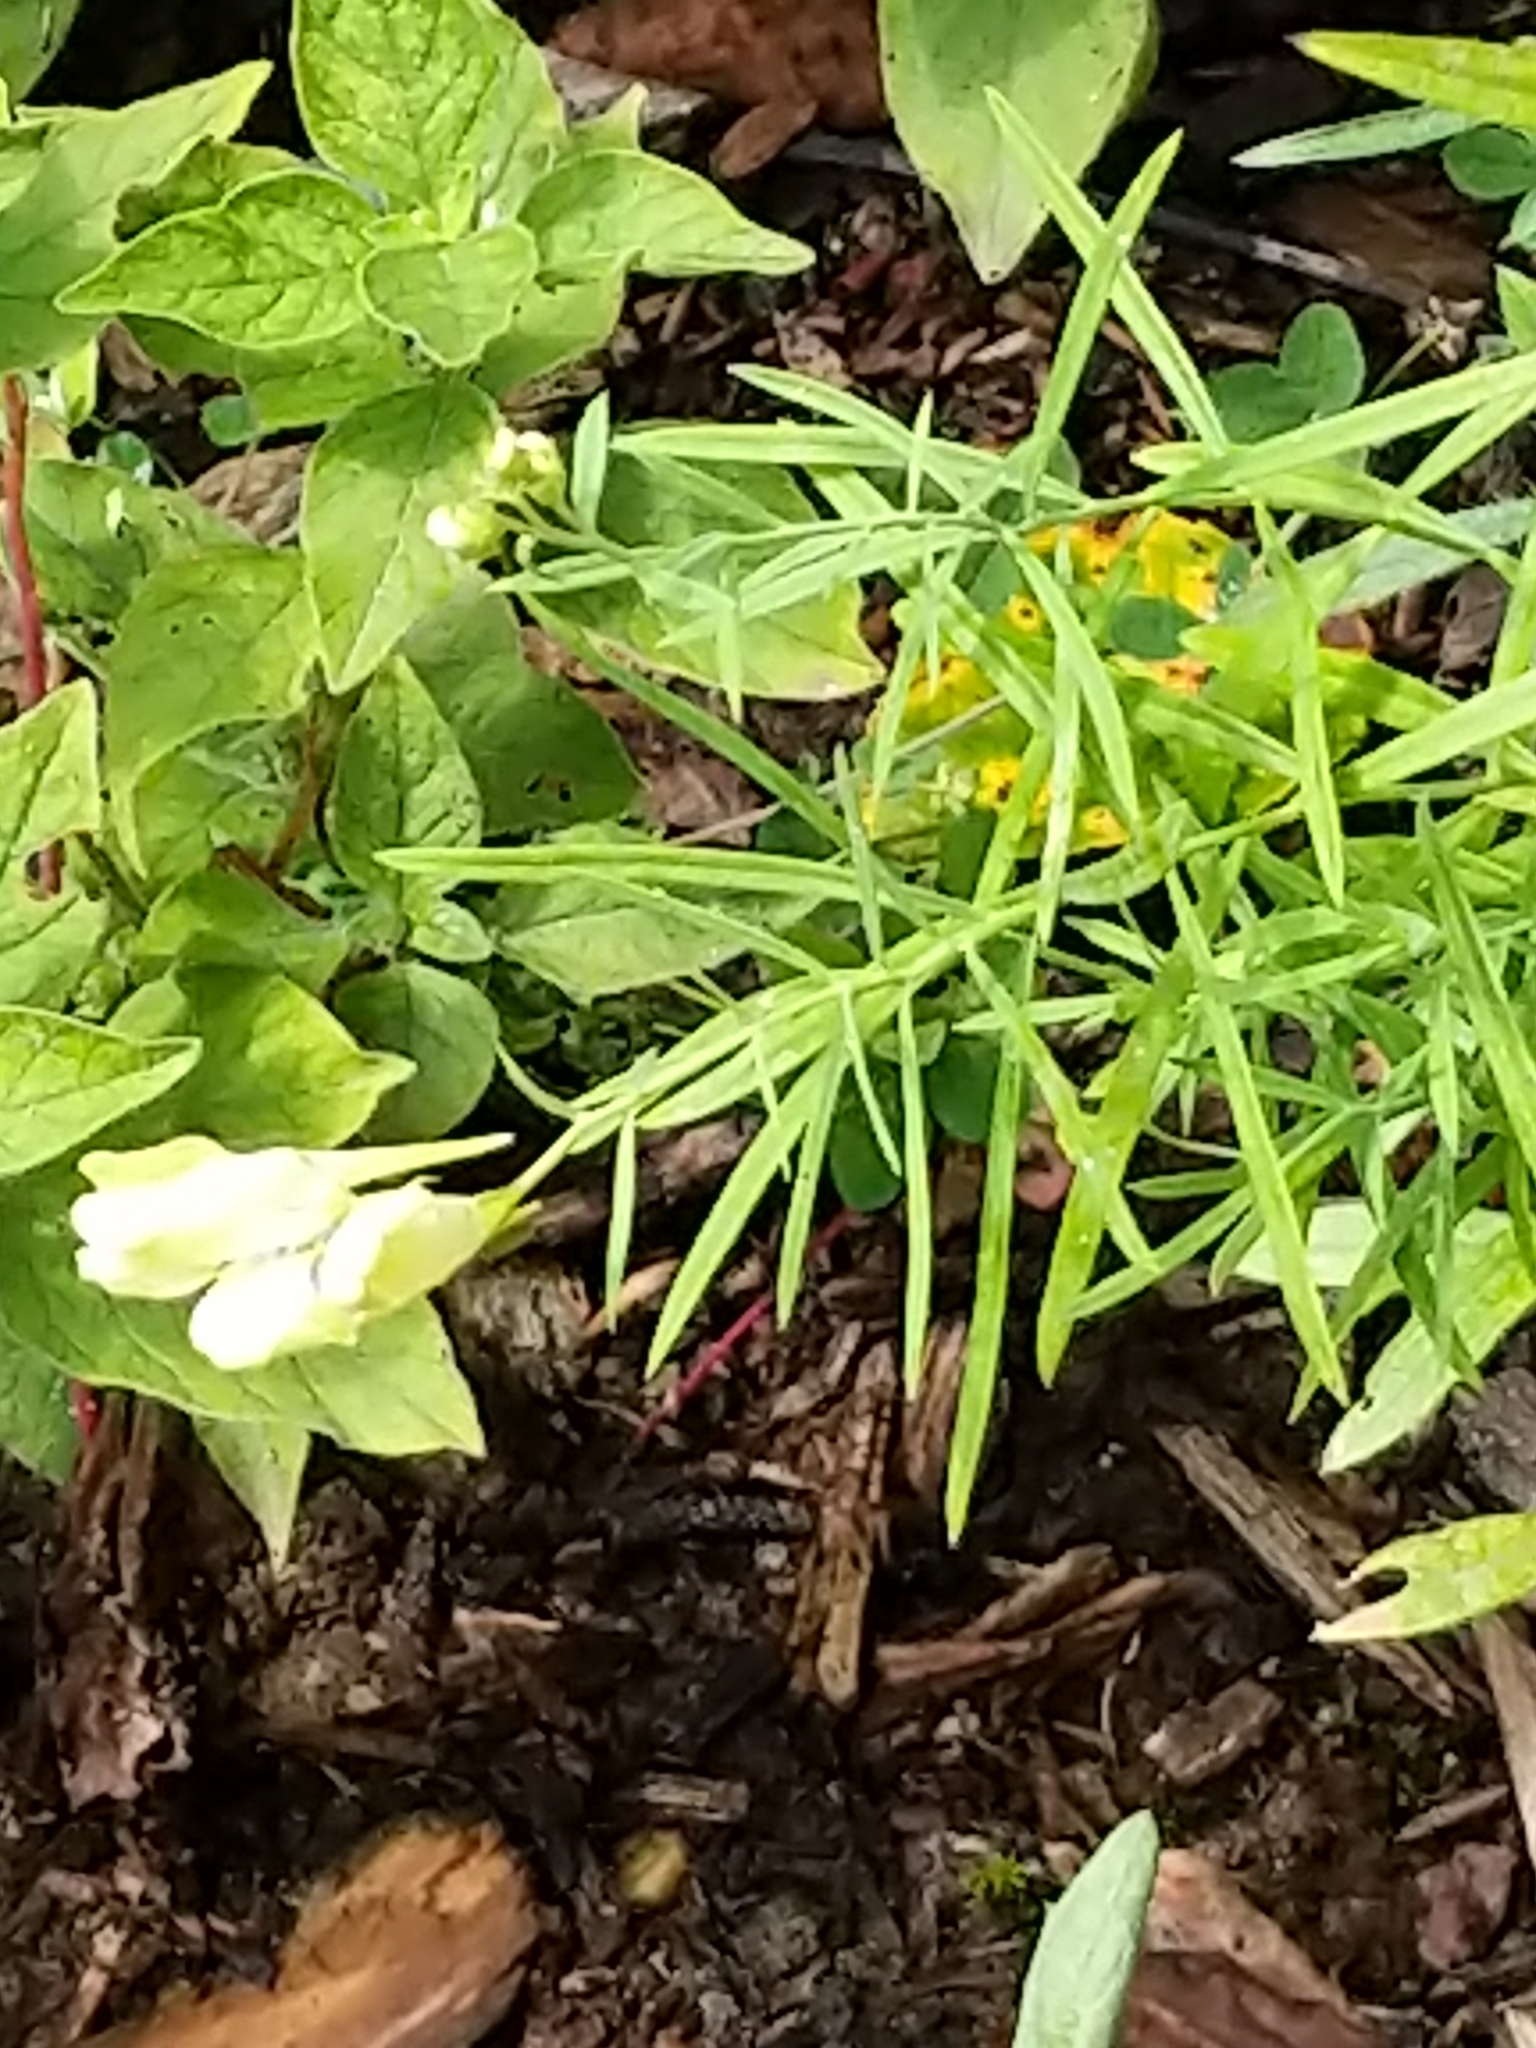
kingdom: Plantae
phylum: Tracheophyta
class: Magnoliopsida
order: Lamiales
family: Plantaginaceae
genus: Linaria
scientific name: Linaria vulgaris
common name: Butter and eggs
